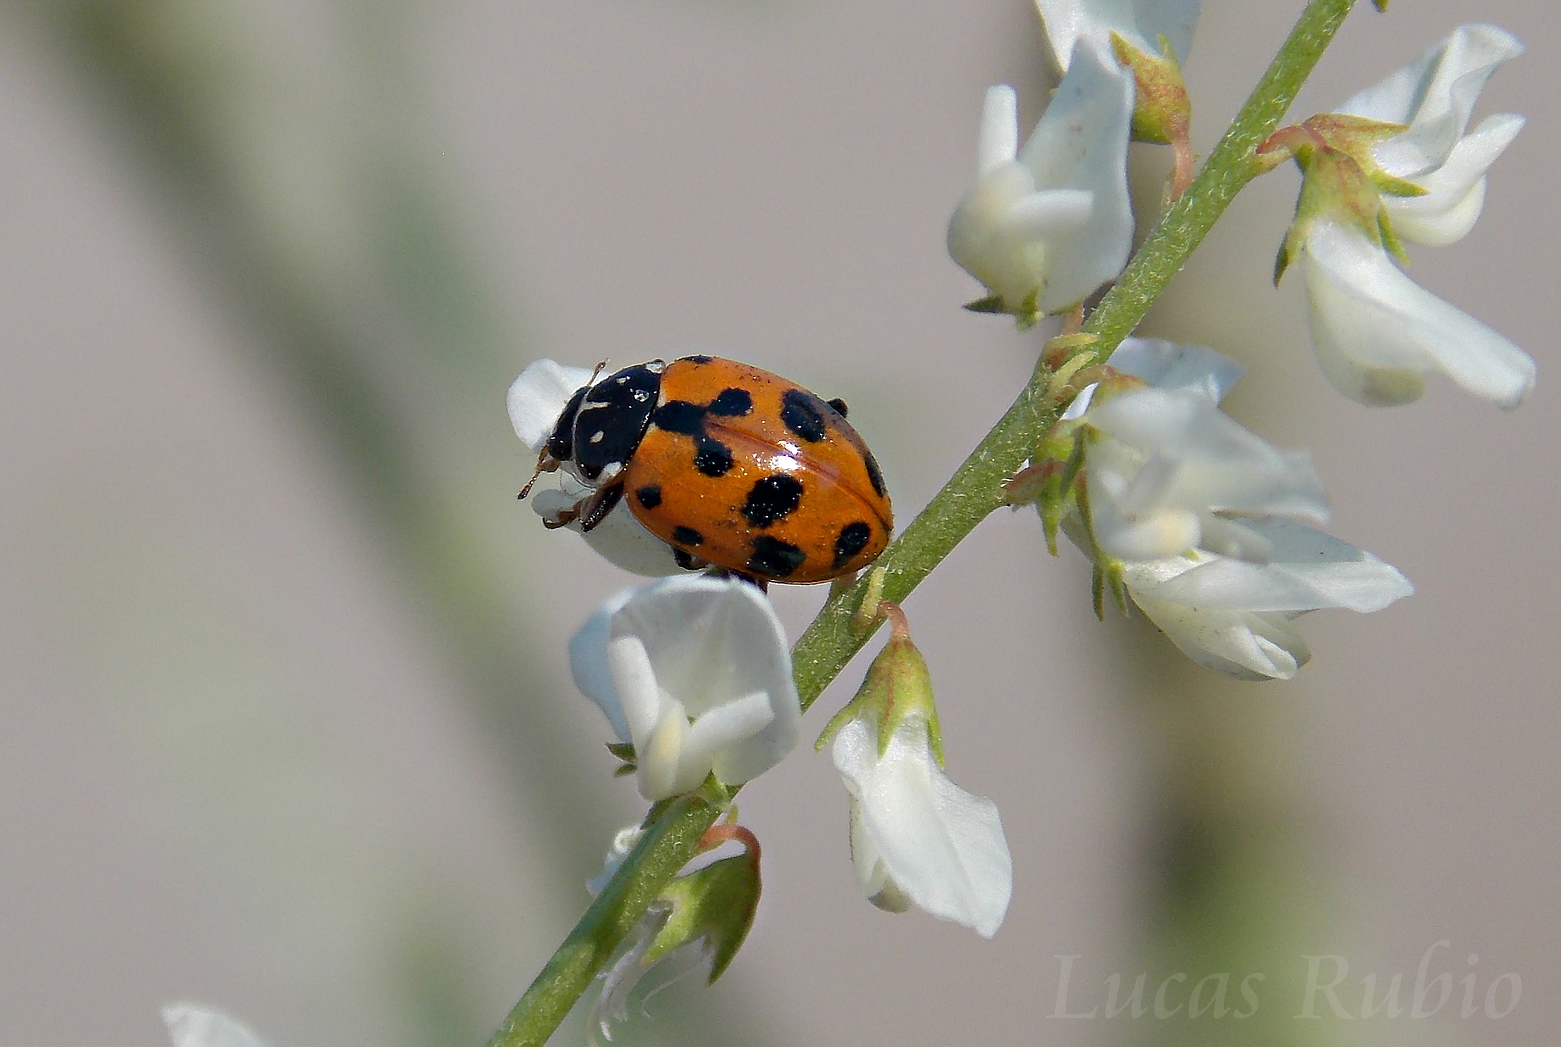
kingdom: Animalia
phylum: Arthropoda
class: Insecta
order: Coleoptera
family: Coccinellidae
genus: Hippodamia
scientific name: Hippodamia variegata
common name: Ladybird beetle
